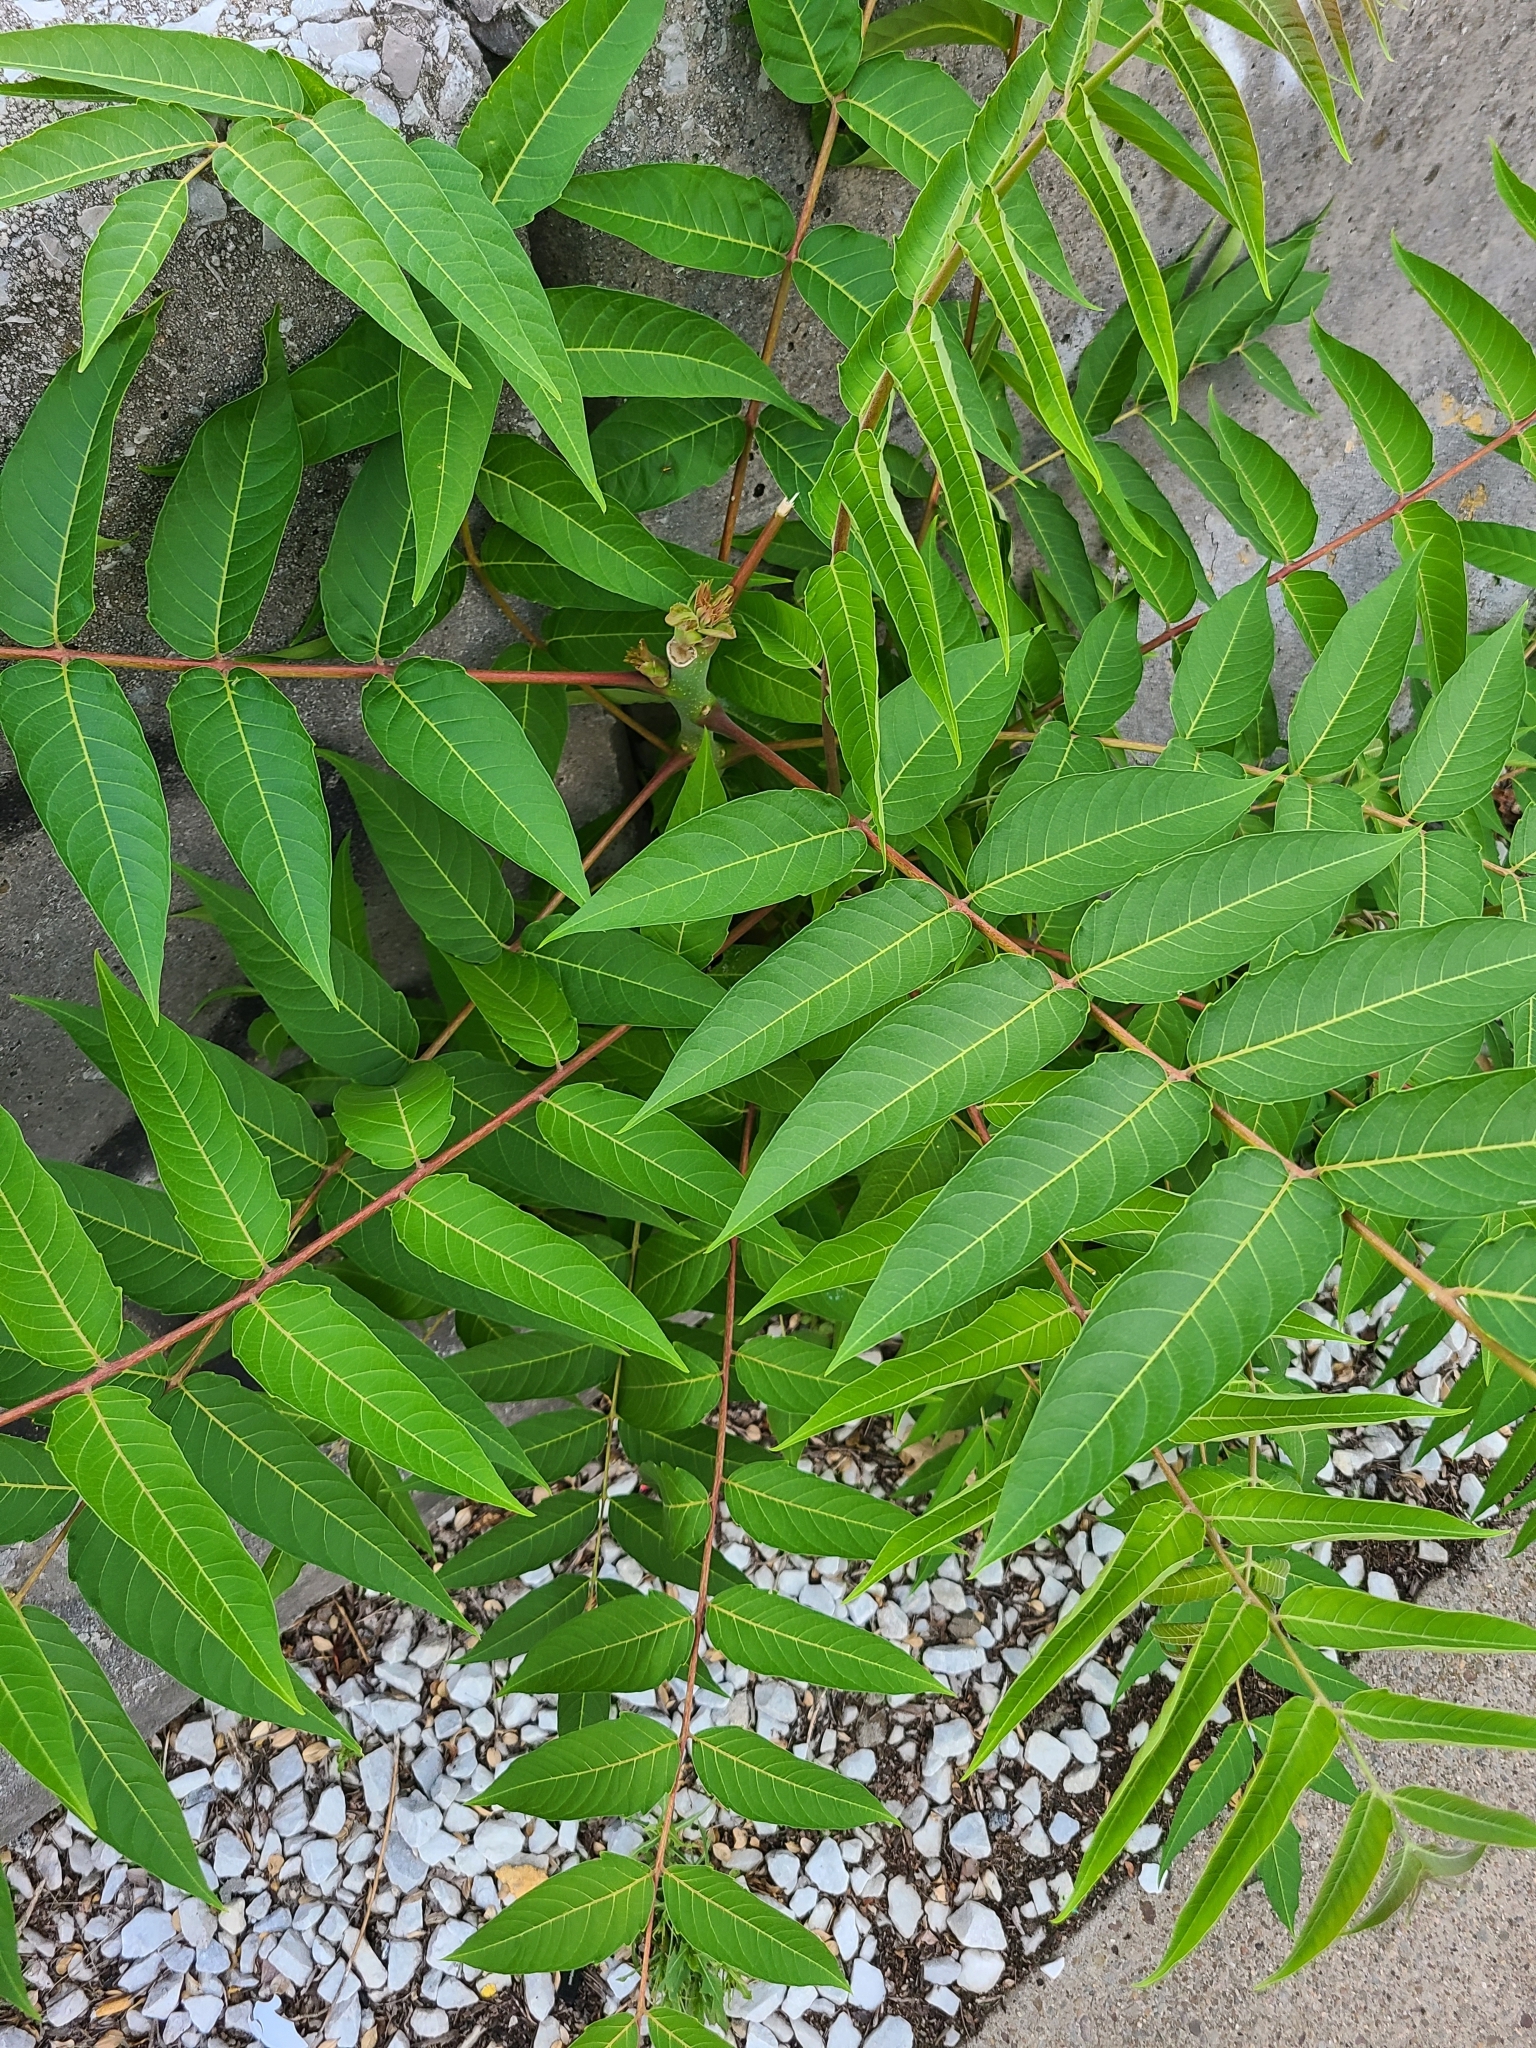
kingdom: Plantae
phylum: Tracheophyta
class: Magnoliopsida
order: Sapindales
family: Simaroubaceae
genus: Ailanthus
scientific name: Ailanthus altissima
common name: Tree-of-heaven
